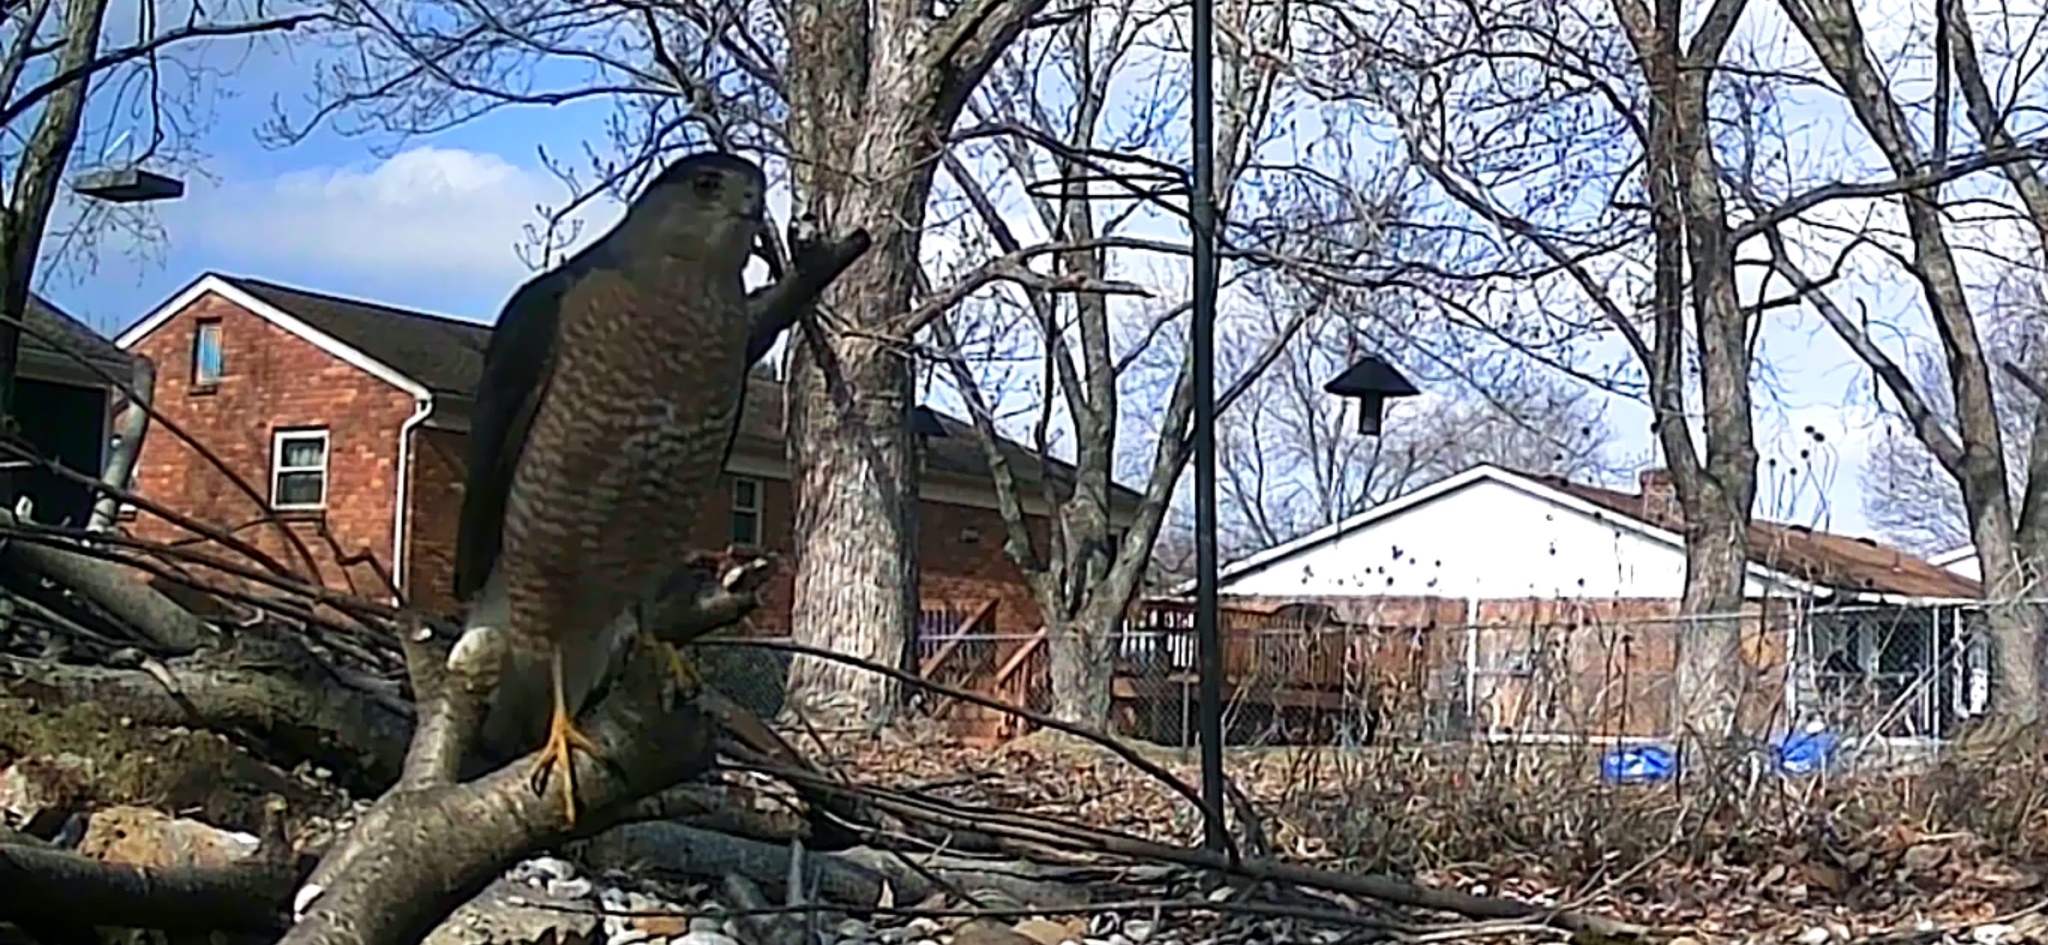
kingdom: Animalia
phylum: Chordata
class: Aves
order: Accipitriformes
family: Accipitridae
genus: Accipiter
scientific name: Accipiter cooperii
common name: Cooper's hawk
